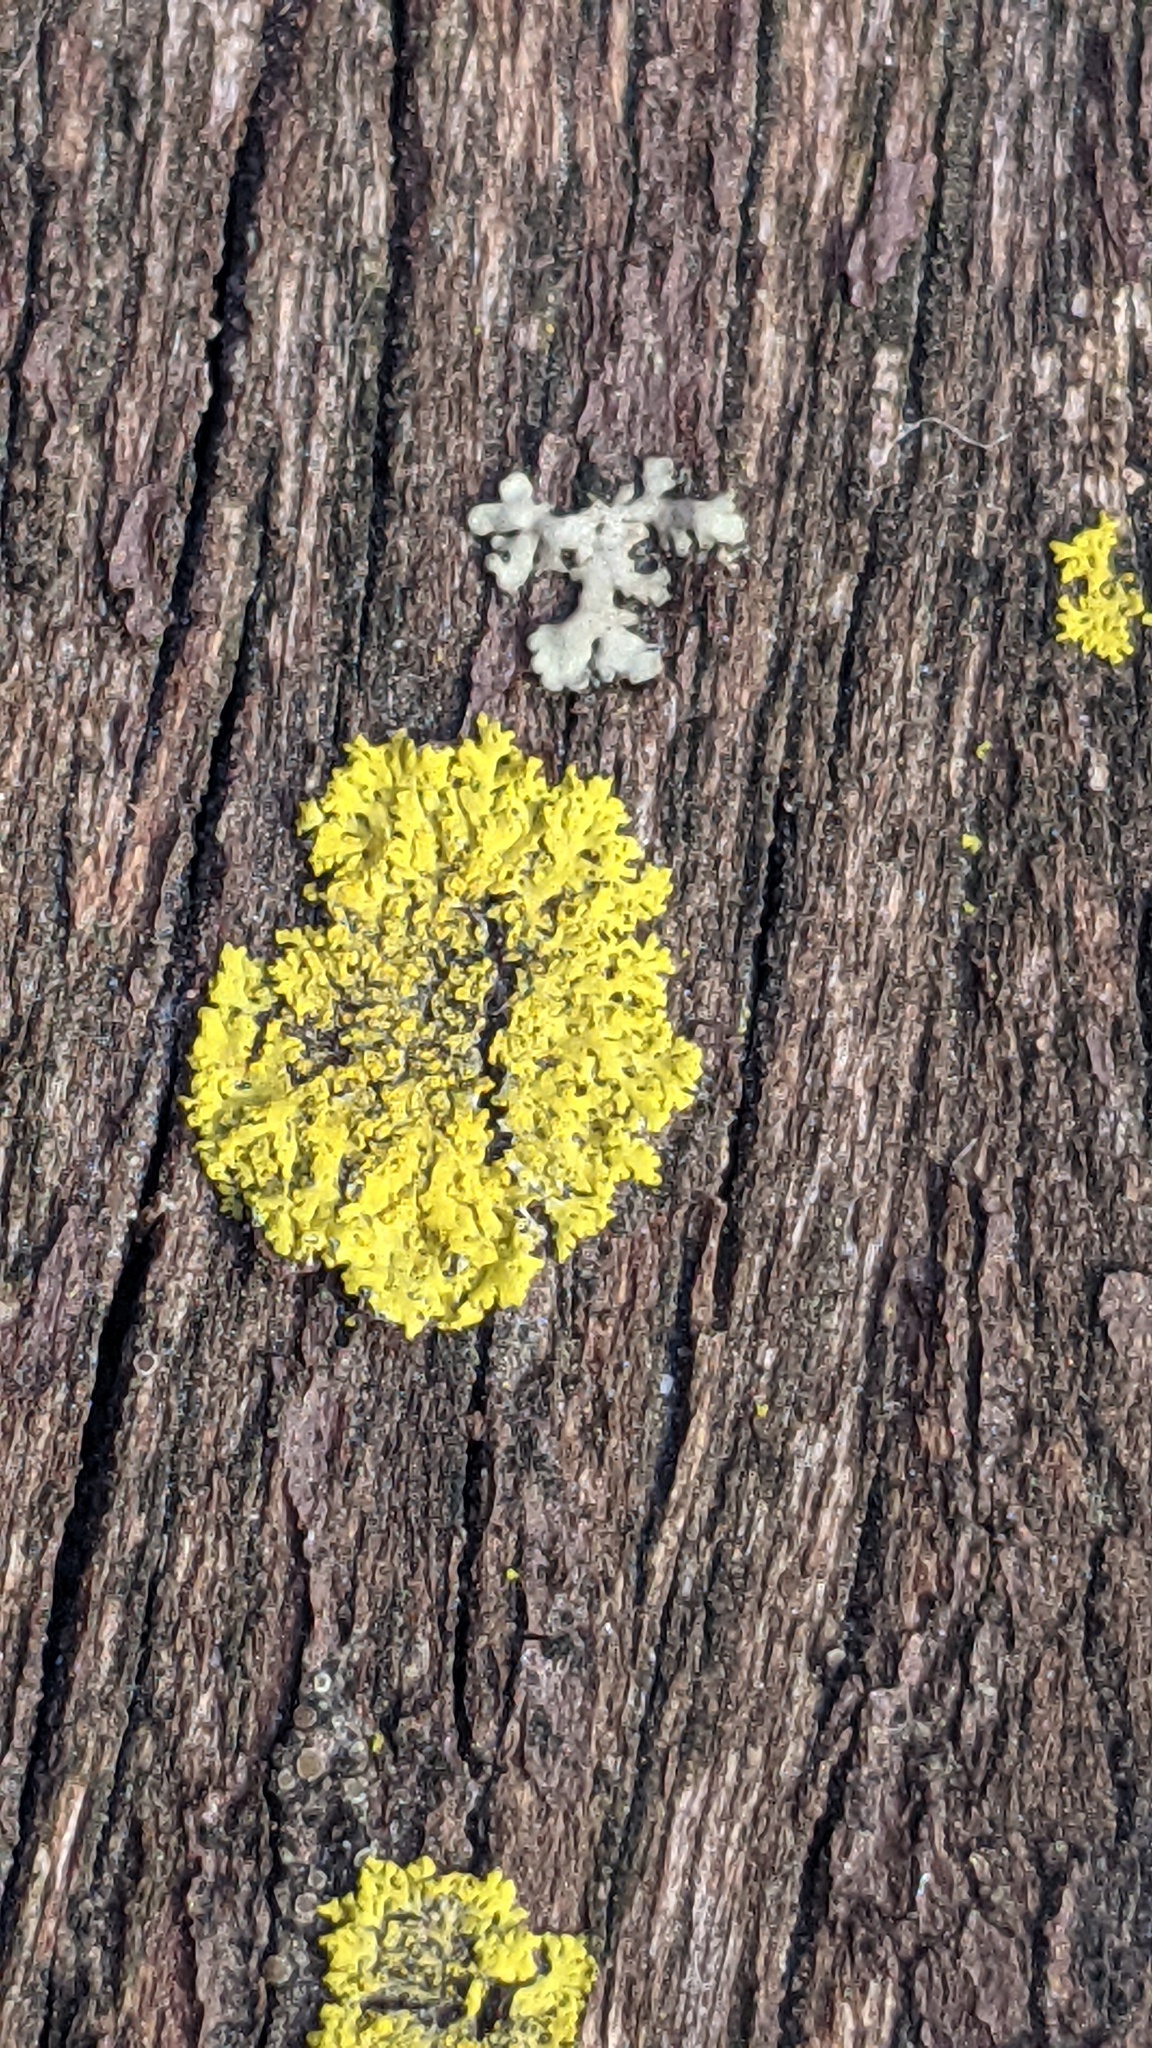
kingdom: Fungi
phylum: Ascomycota
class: Candelariomycetes
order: Candelariales
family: Candelariaceae
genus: Candelaria
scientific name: Candelaria concolor
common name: Candleflame lichen
